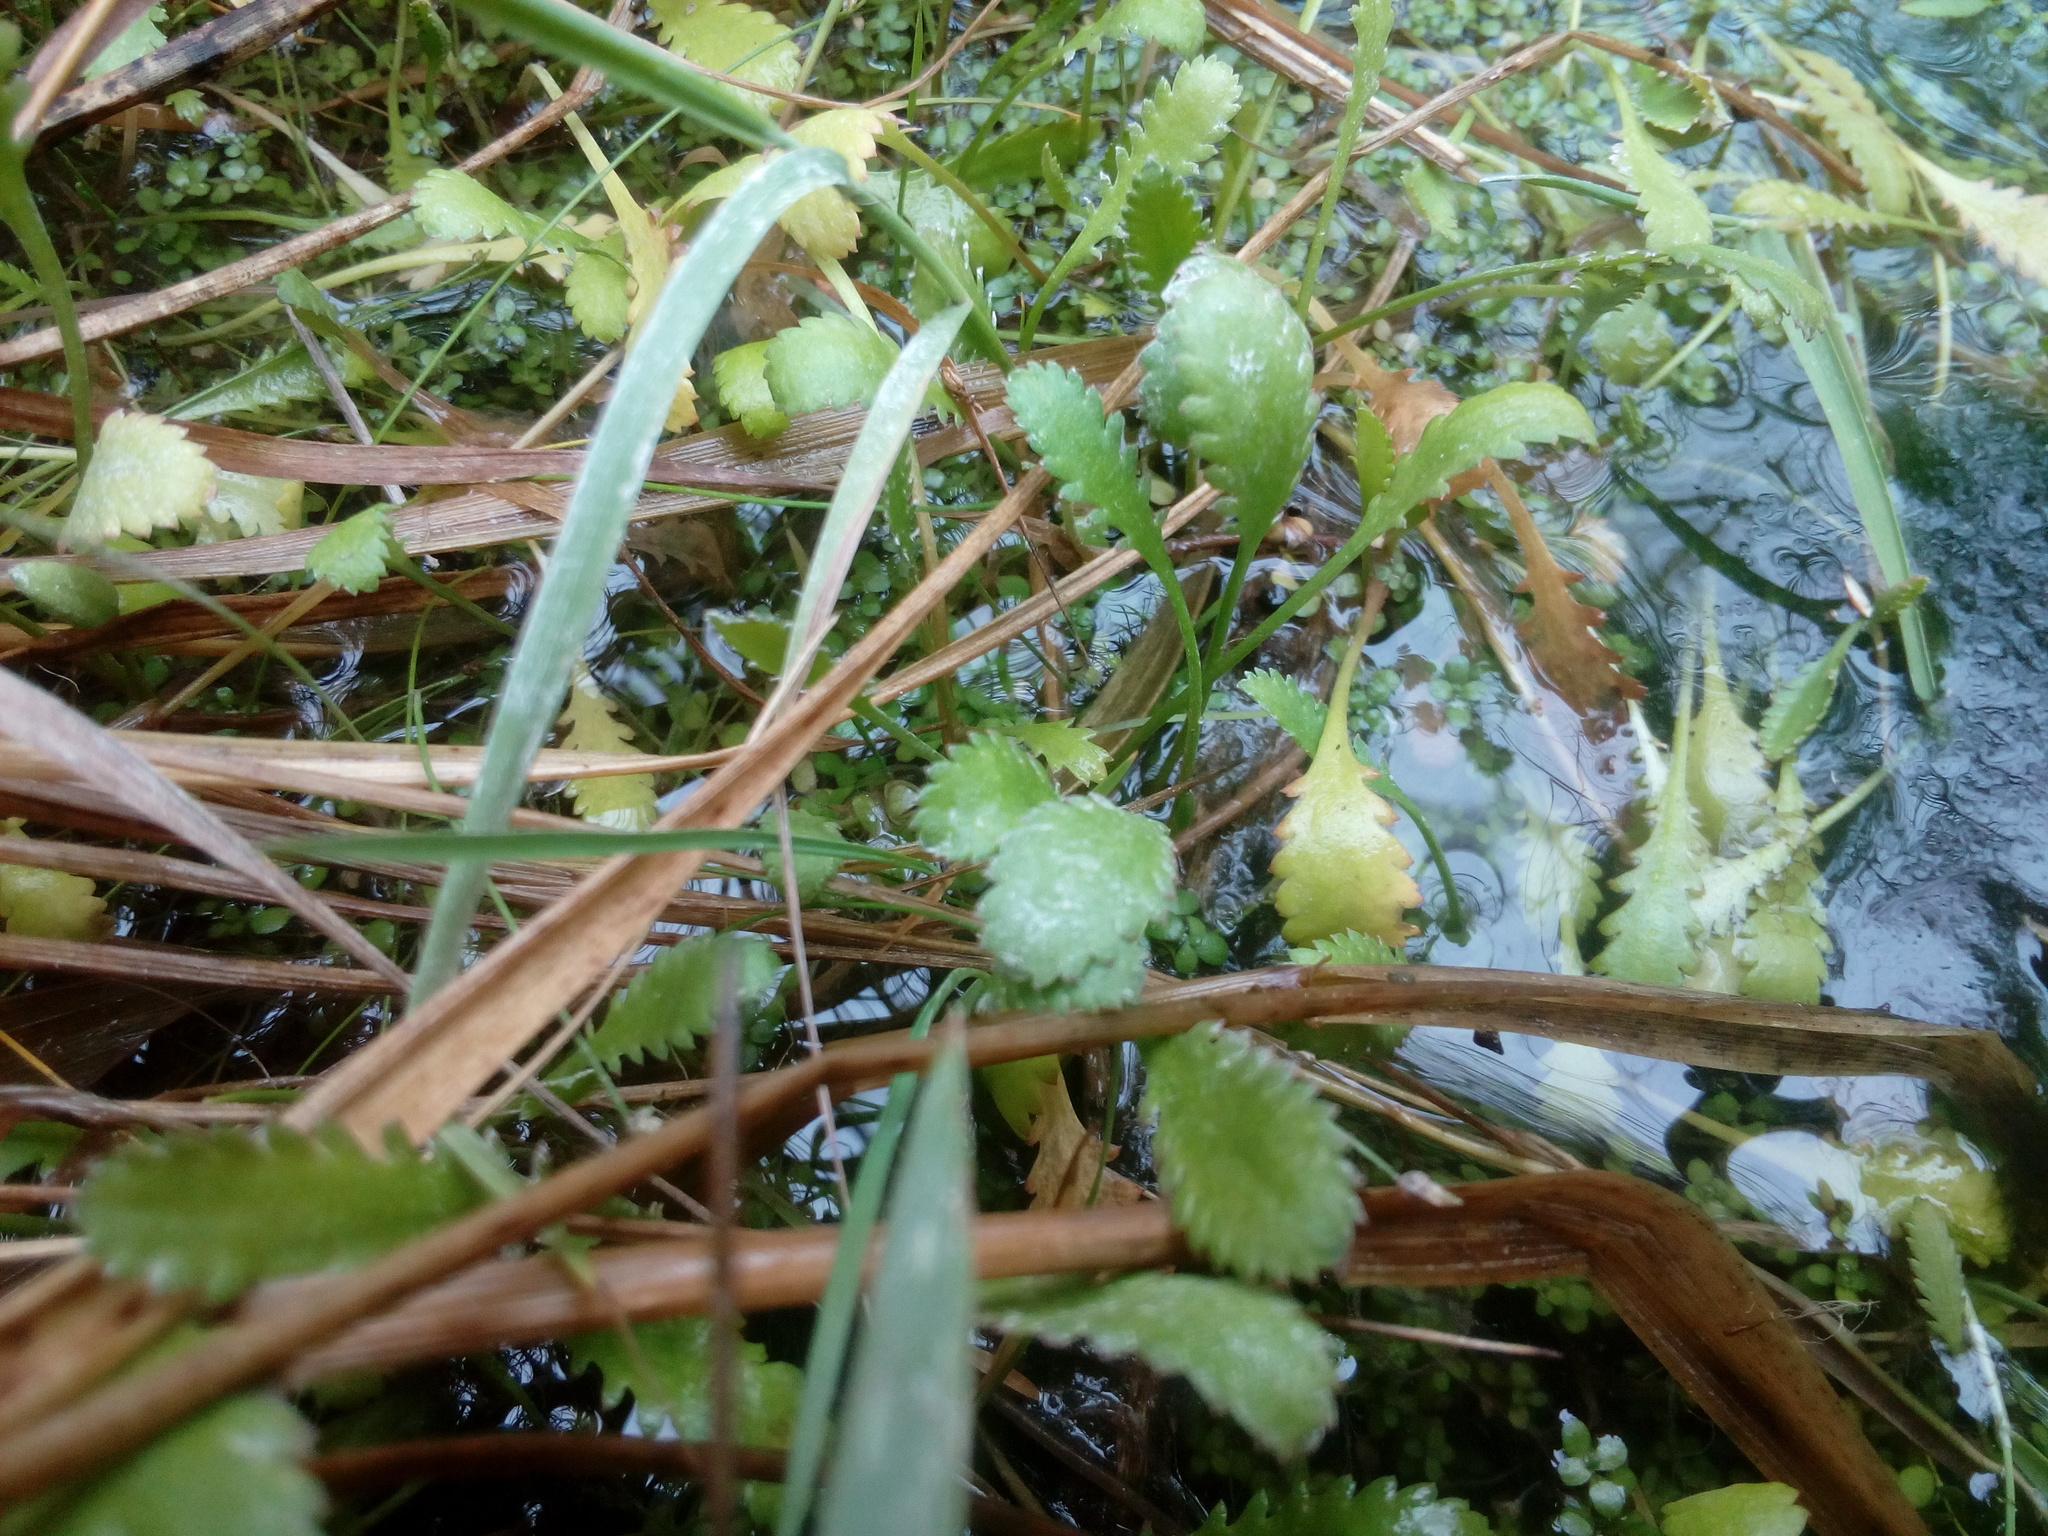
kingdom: Plantae
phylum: Tracheophyta
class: Magnoliopsida
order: Asterales
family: Asteraceae
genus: Leptinella
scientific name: Leptinella dioica
